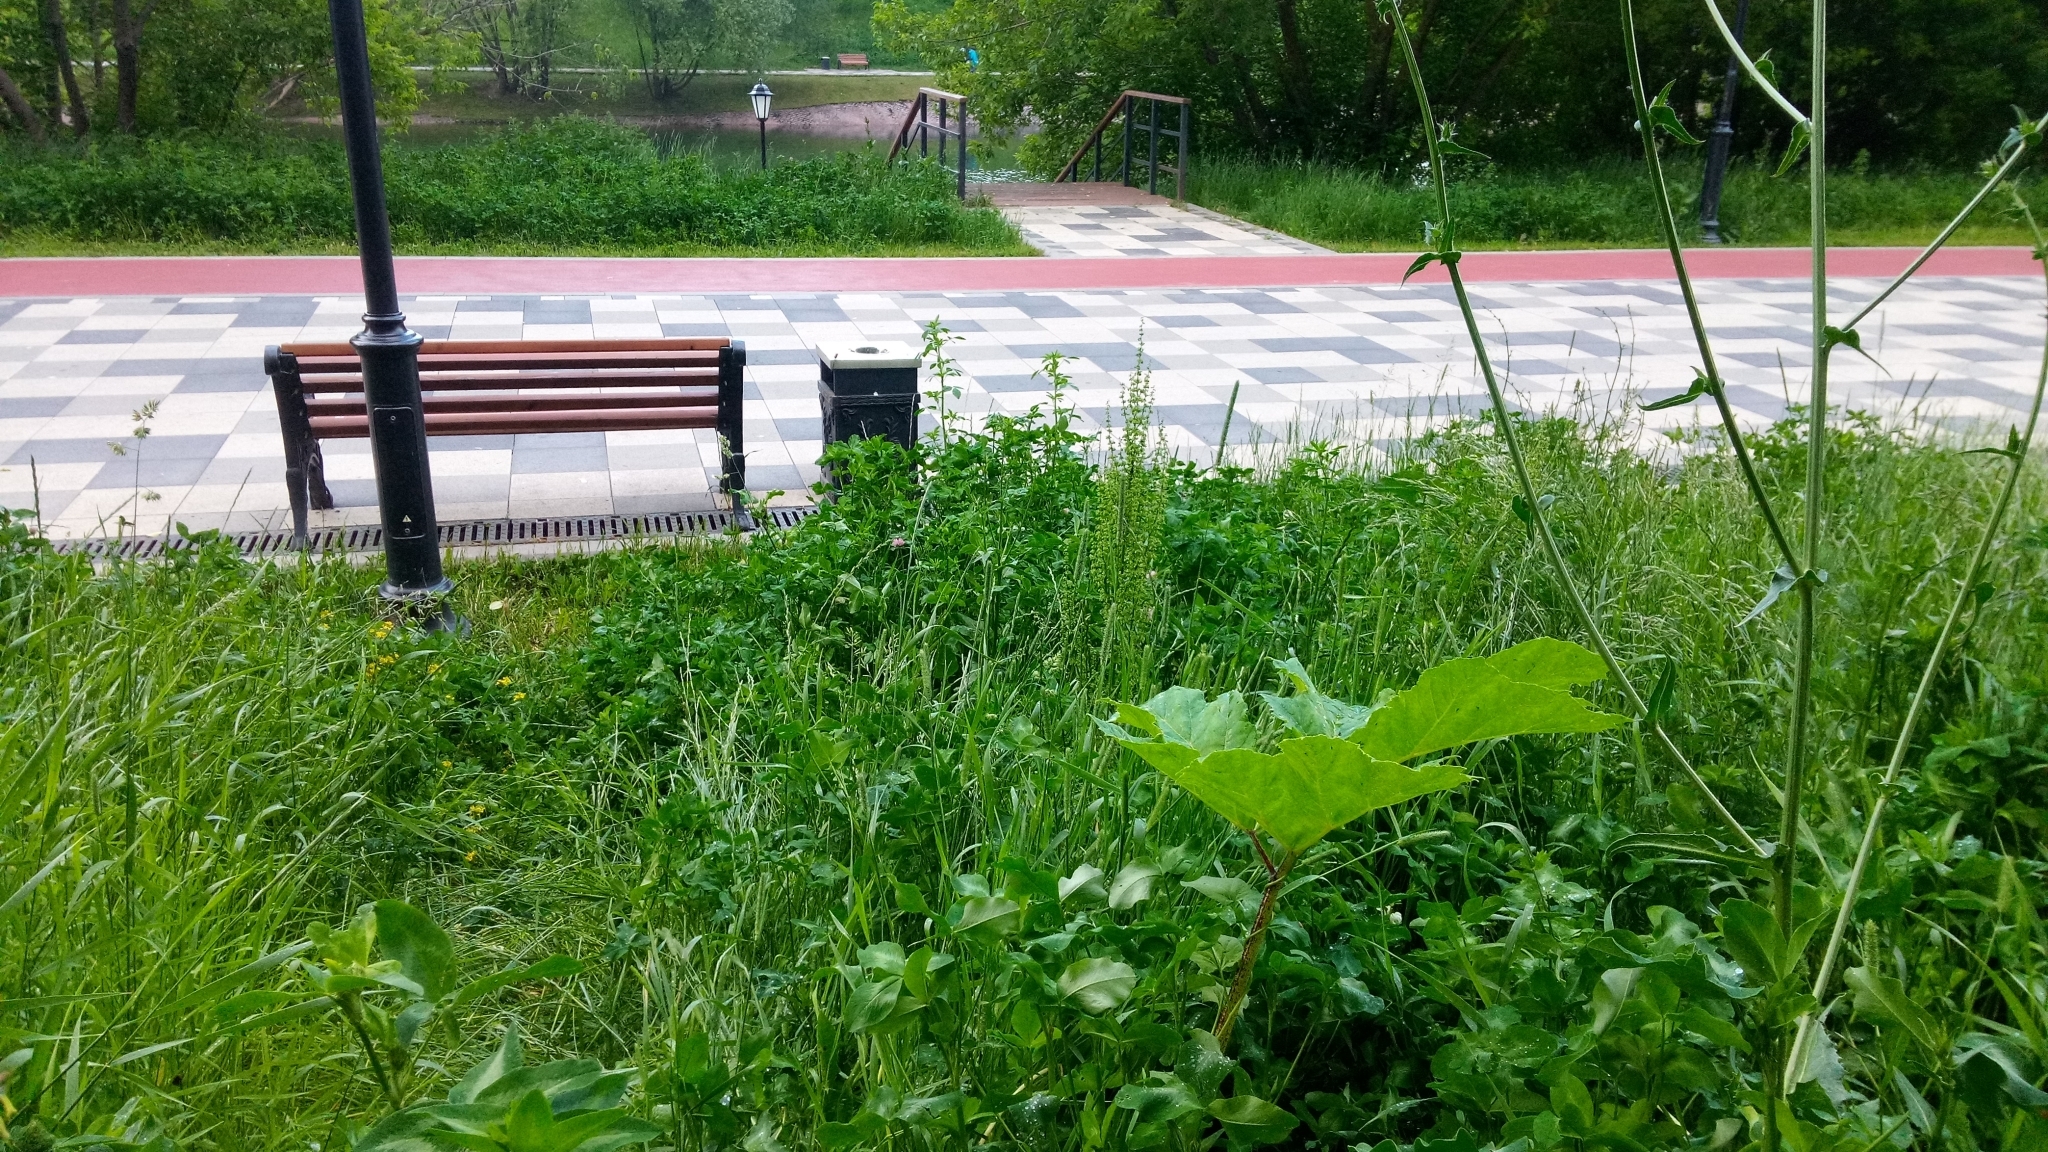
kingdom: Plantae
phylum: Tracheophyta
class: Magnoliopsida
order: Apiales
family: Apiaceae
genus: Heracleum
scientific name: Heracleum sosnowskyi
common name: Sosnowsky's hogweed
